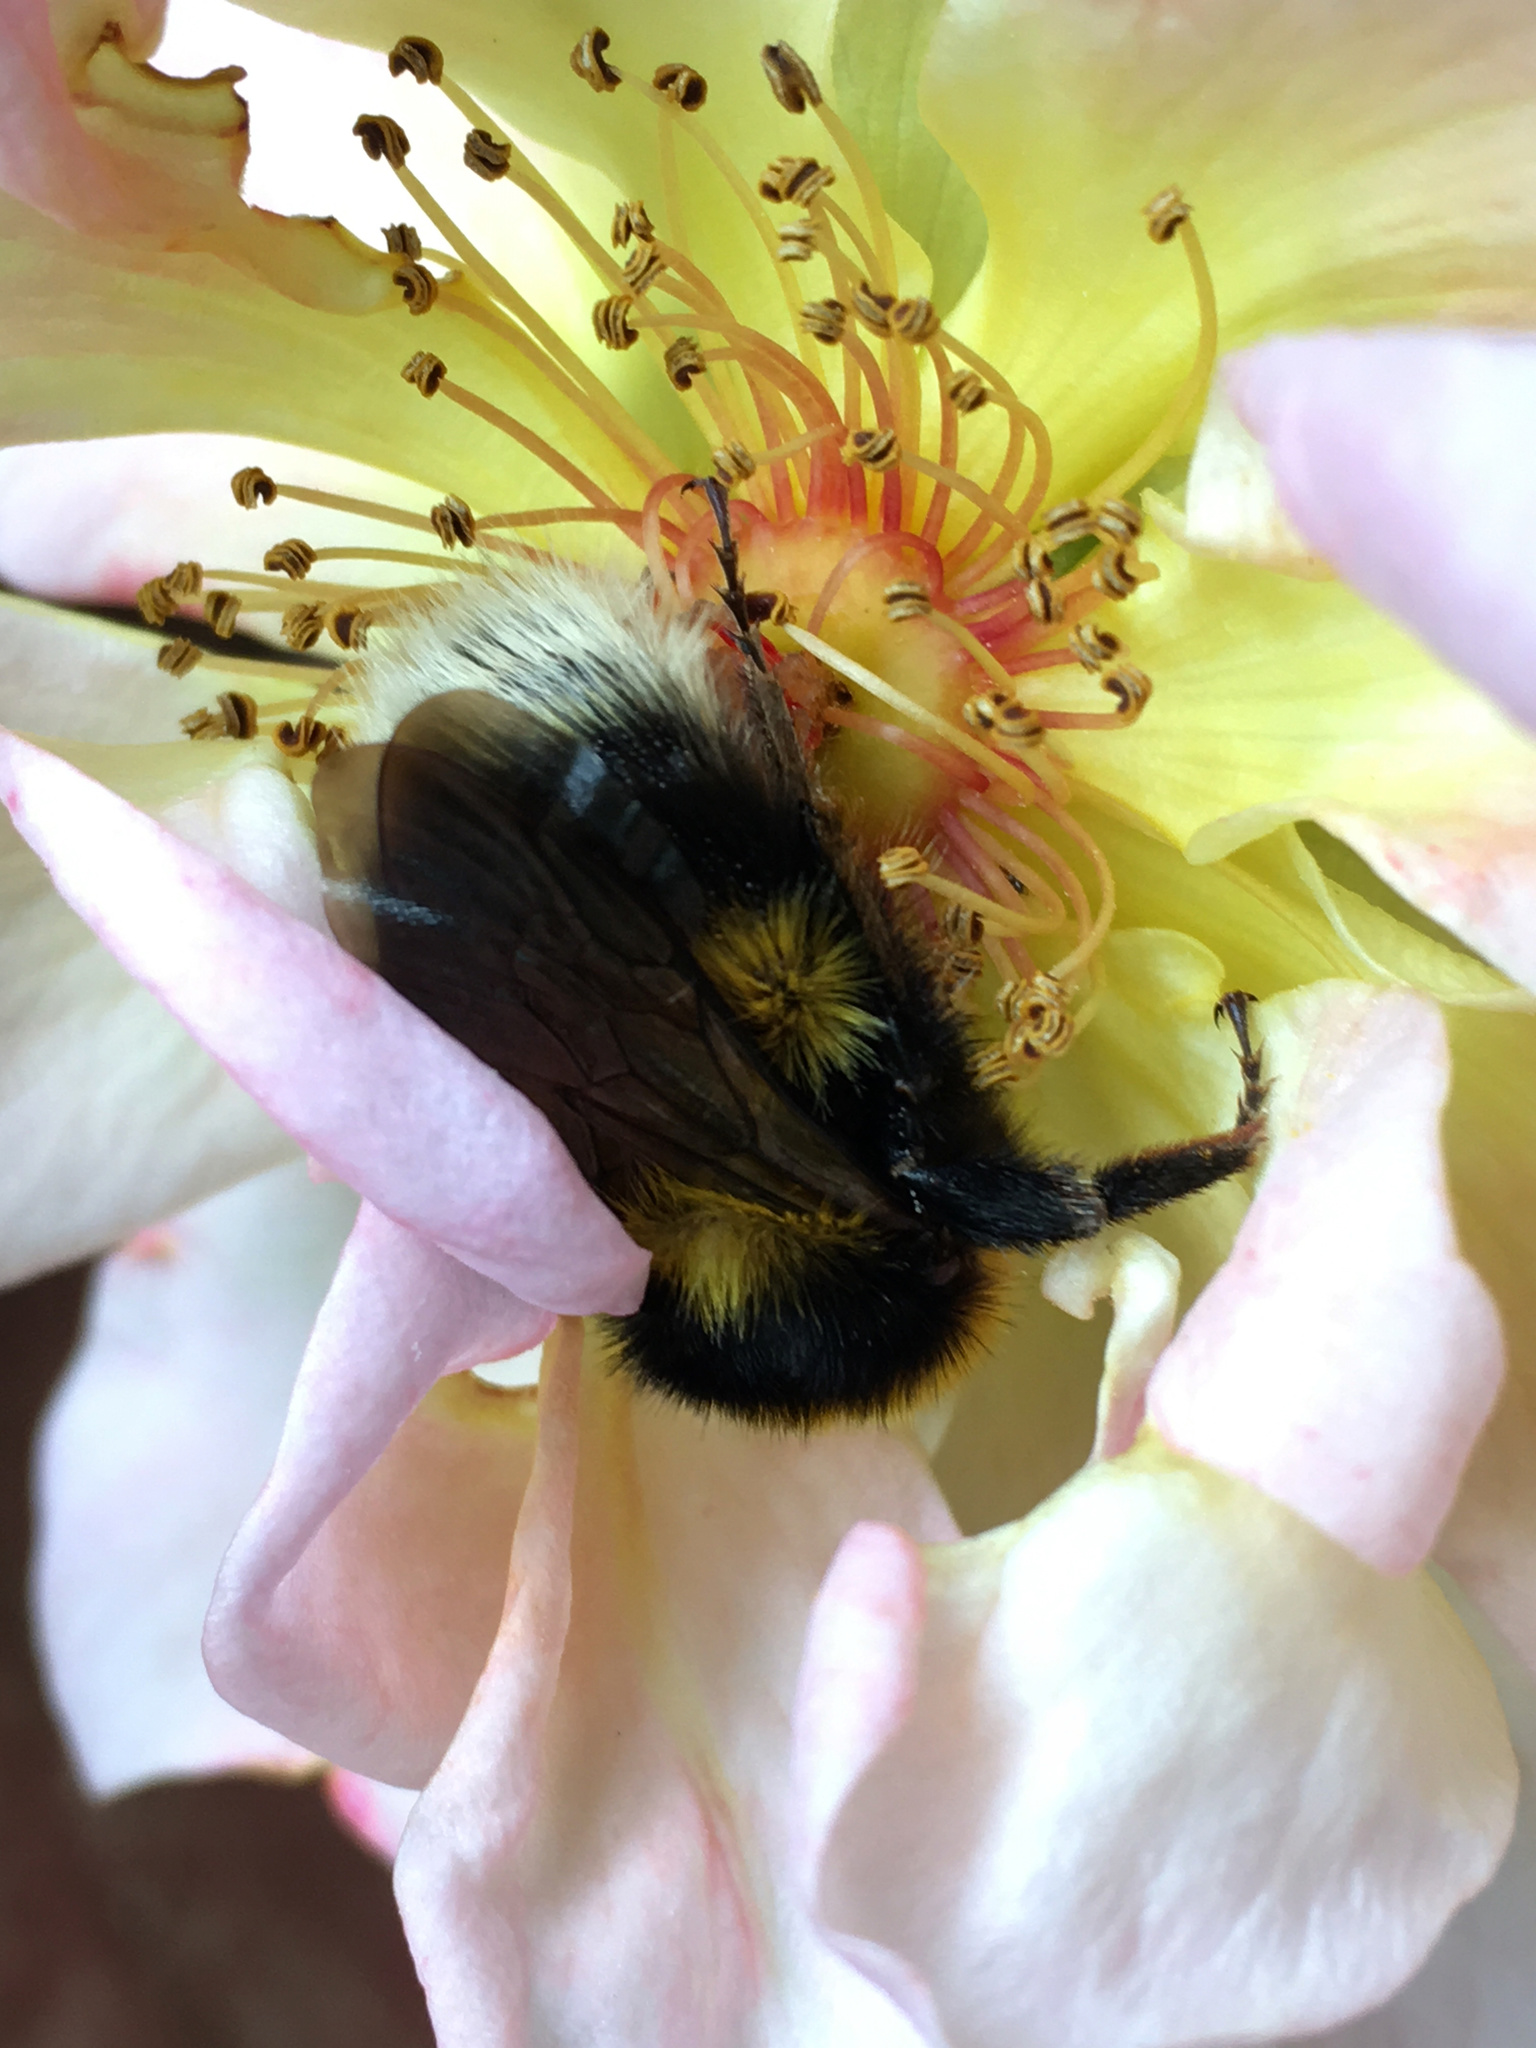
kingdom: Animalia
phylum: Arthropoda
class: Insecta
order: Hymenoptera
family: Apidae
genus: Megabombus
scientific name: Megabombus
